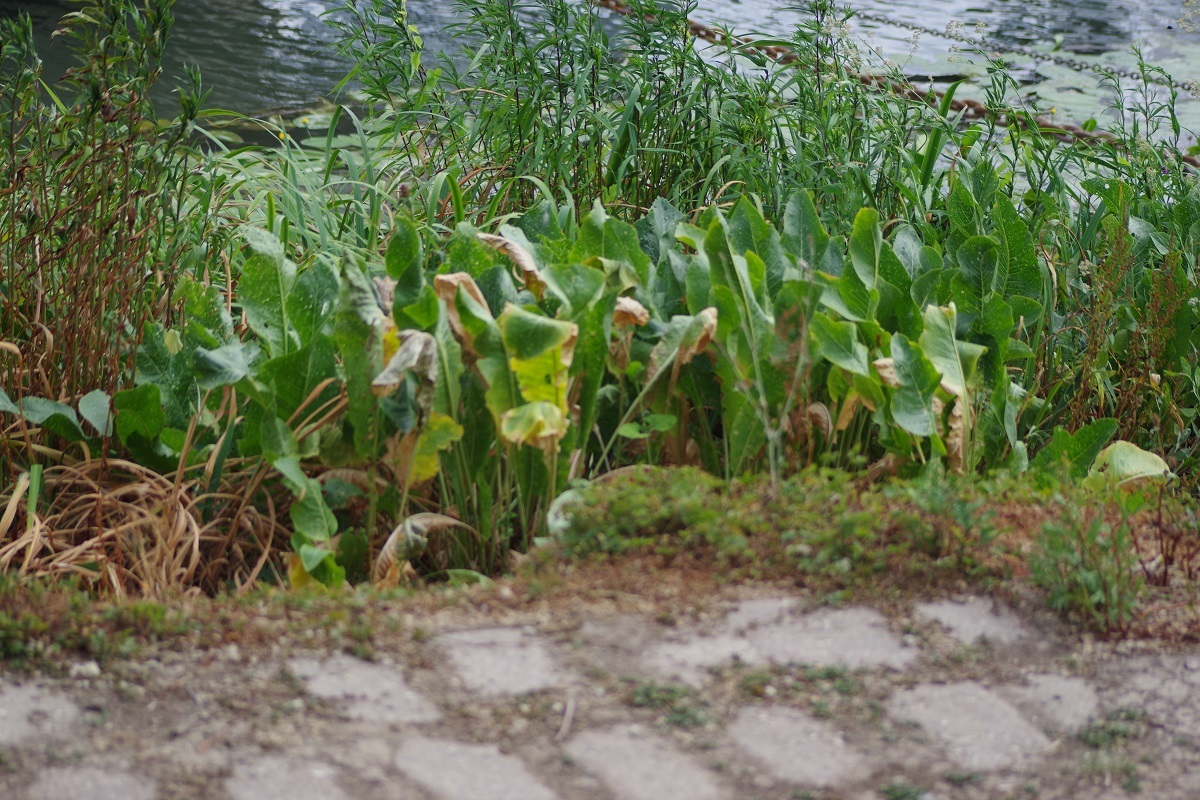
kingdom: Plantae
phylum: Tracheophyta
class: Magnoliopsida
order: Brassicales
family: Brassicaceae
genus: Armoracia
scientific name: Armoracia rusticana
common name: Horseradish
